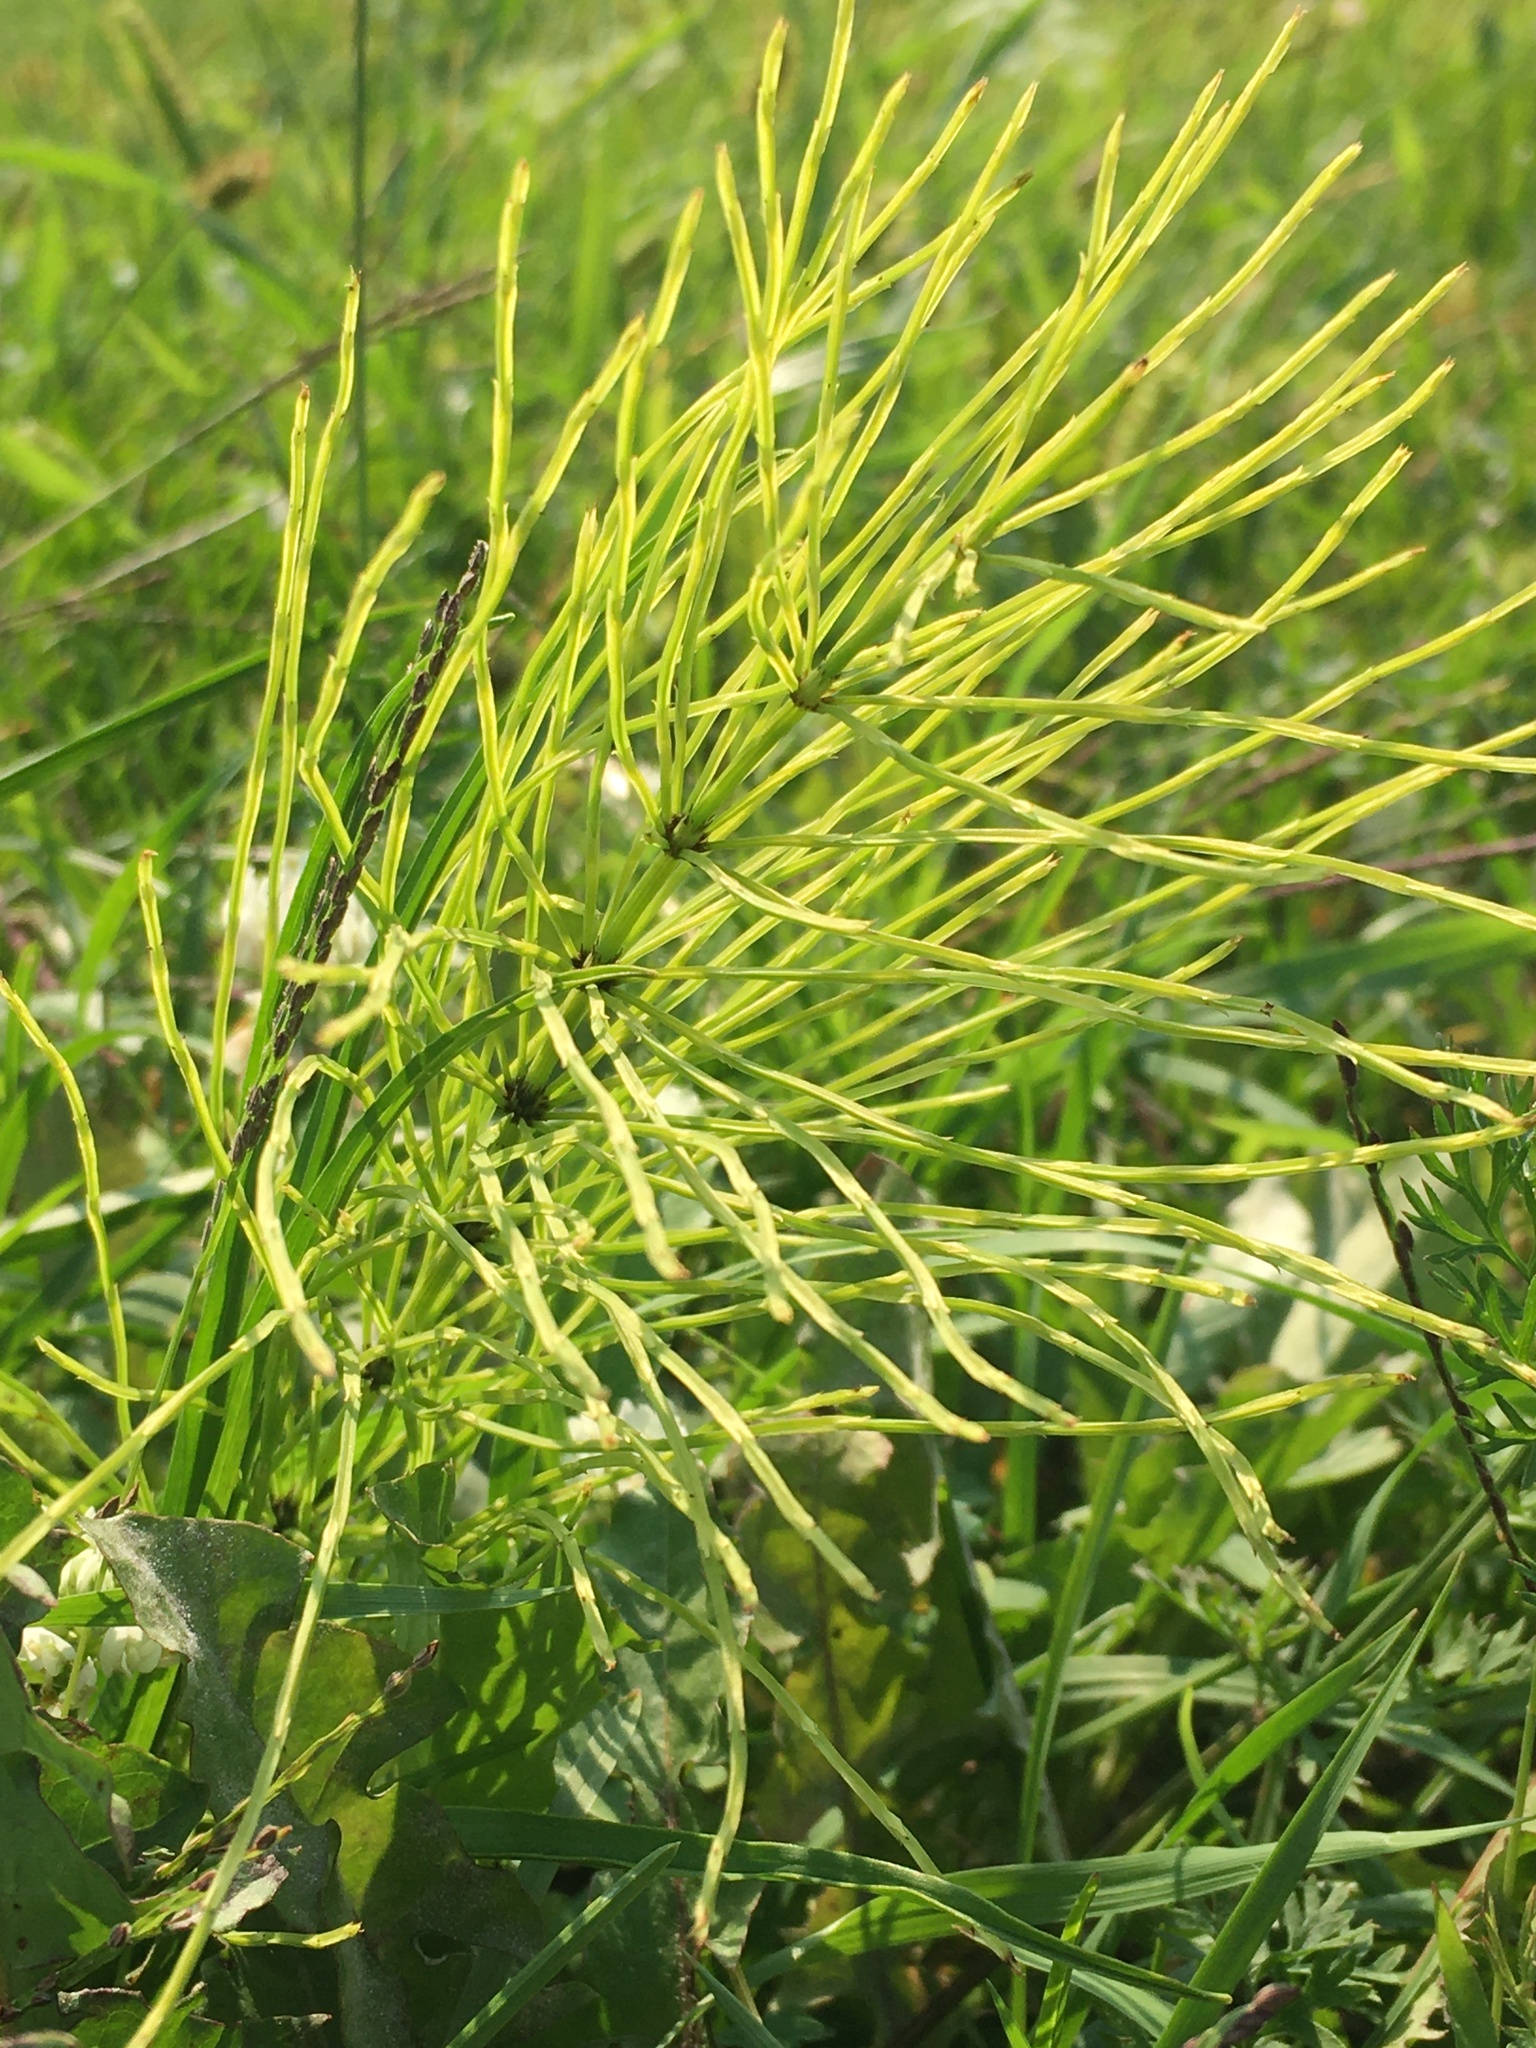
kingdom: Plantae
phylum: Tracheophyta
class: Polypodiopsida
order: Equisetales
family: Equisetaceae
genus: Equisetum
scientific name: Equisetum arvense
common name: Field horsetail
